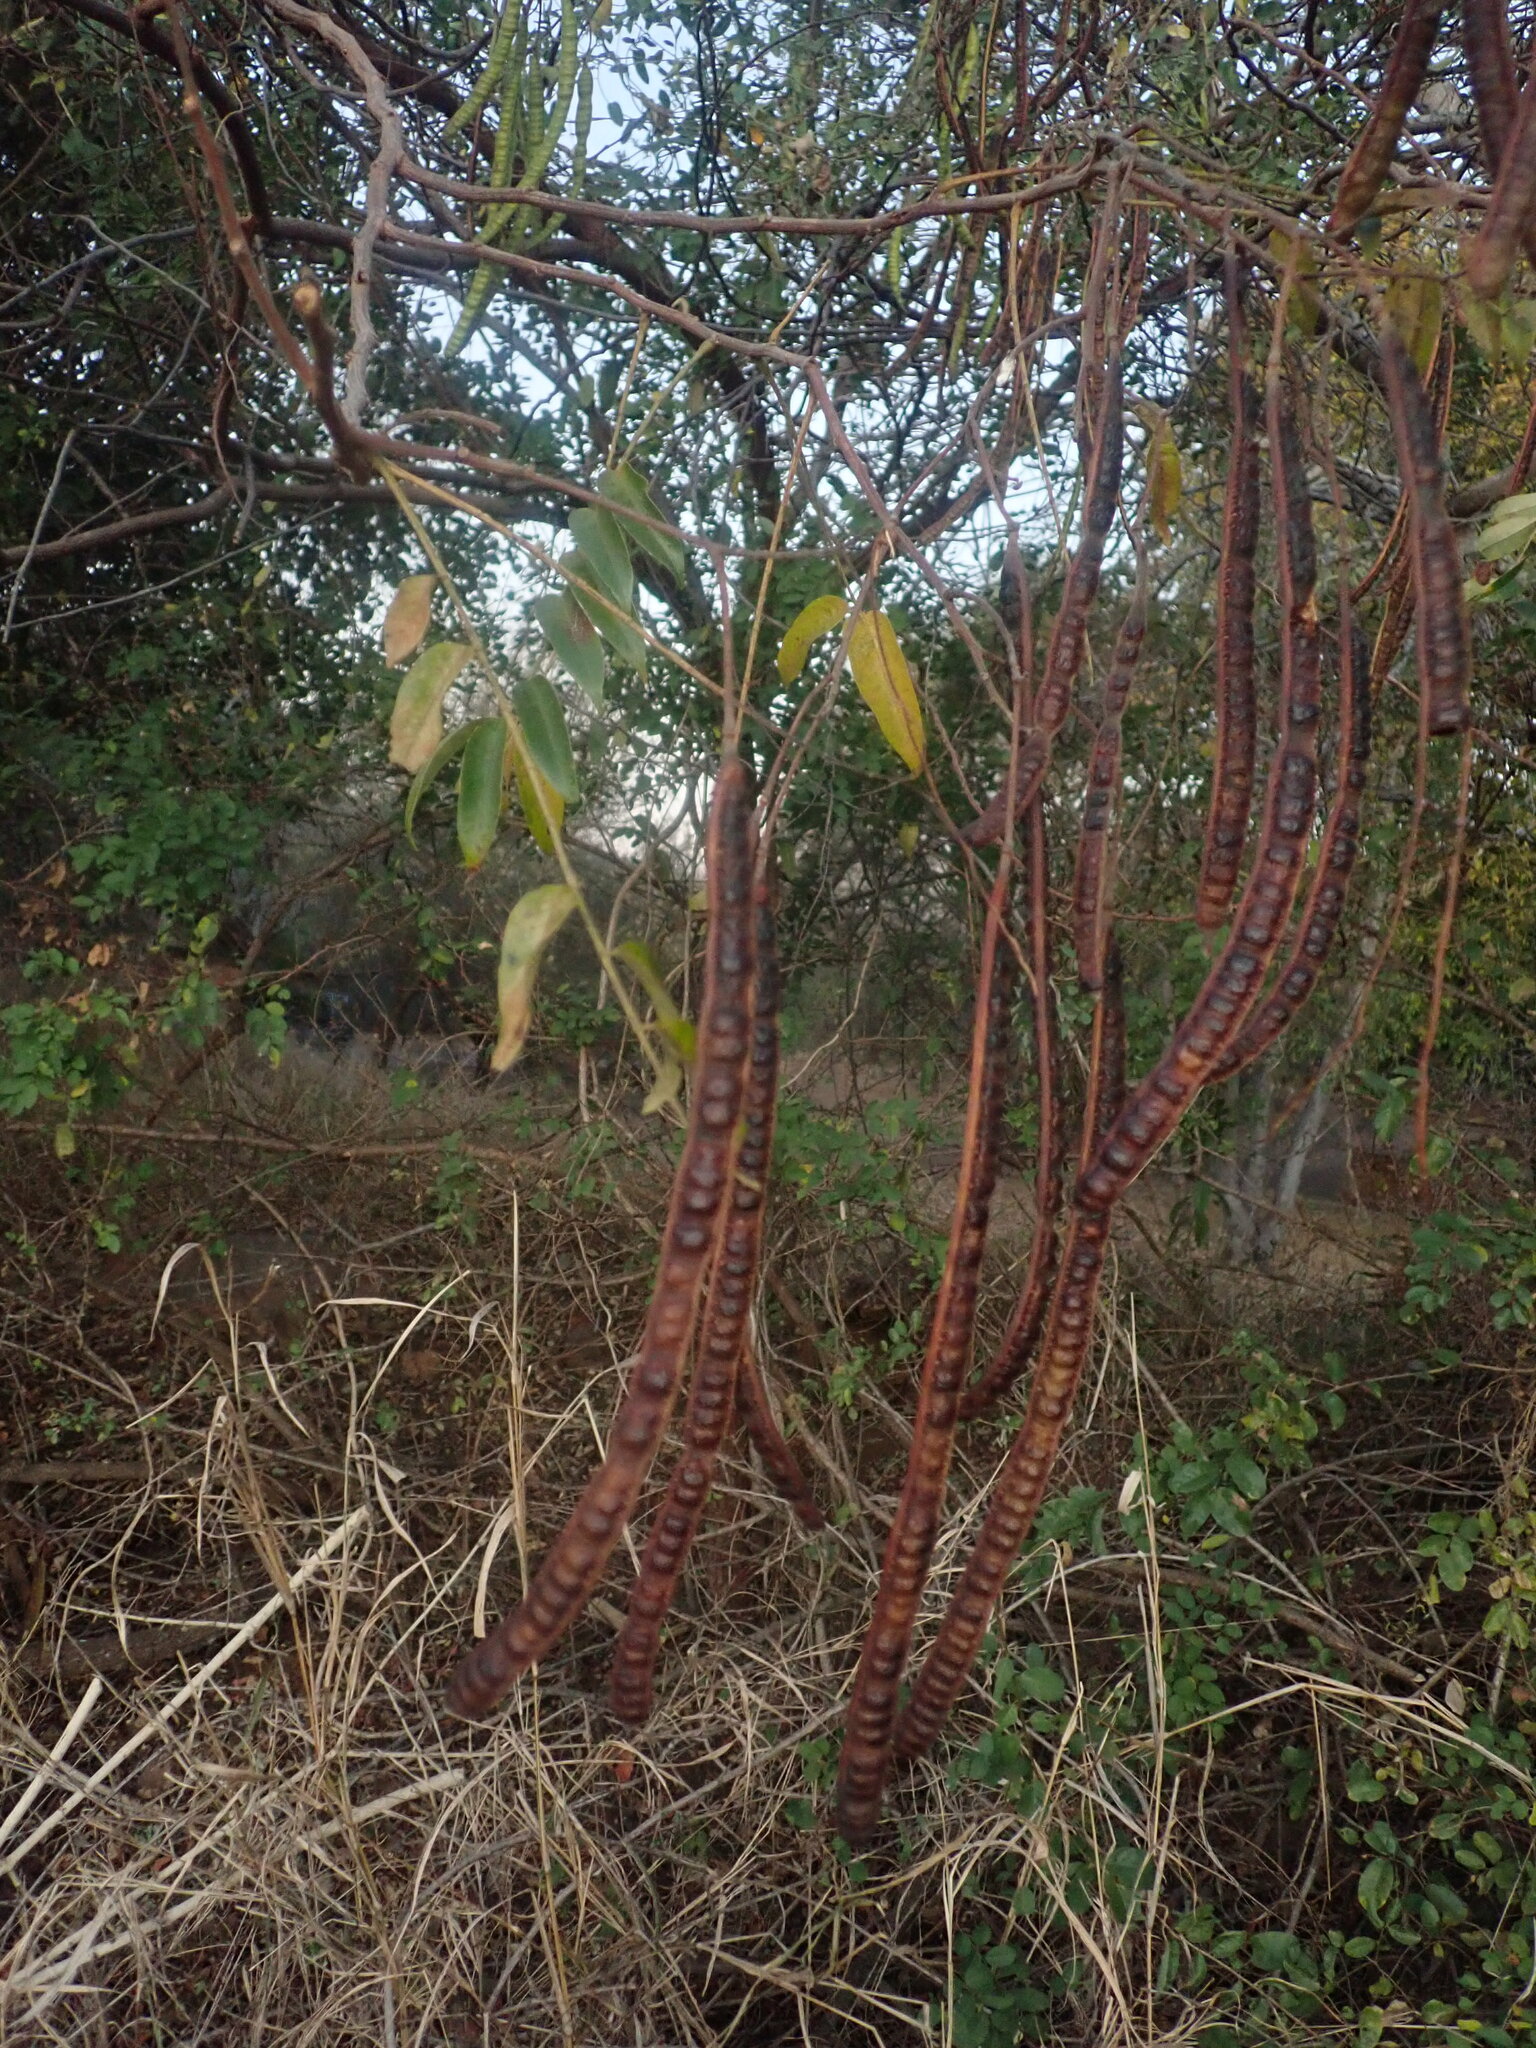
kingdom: Plantae
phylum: Tracheophyta
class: Magnoliopsida
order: Fabales
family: Fabaceae
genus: Senna
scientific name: Senna petersiana
